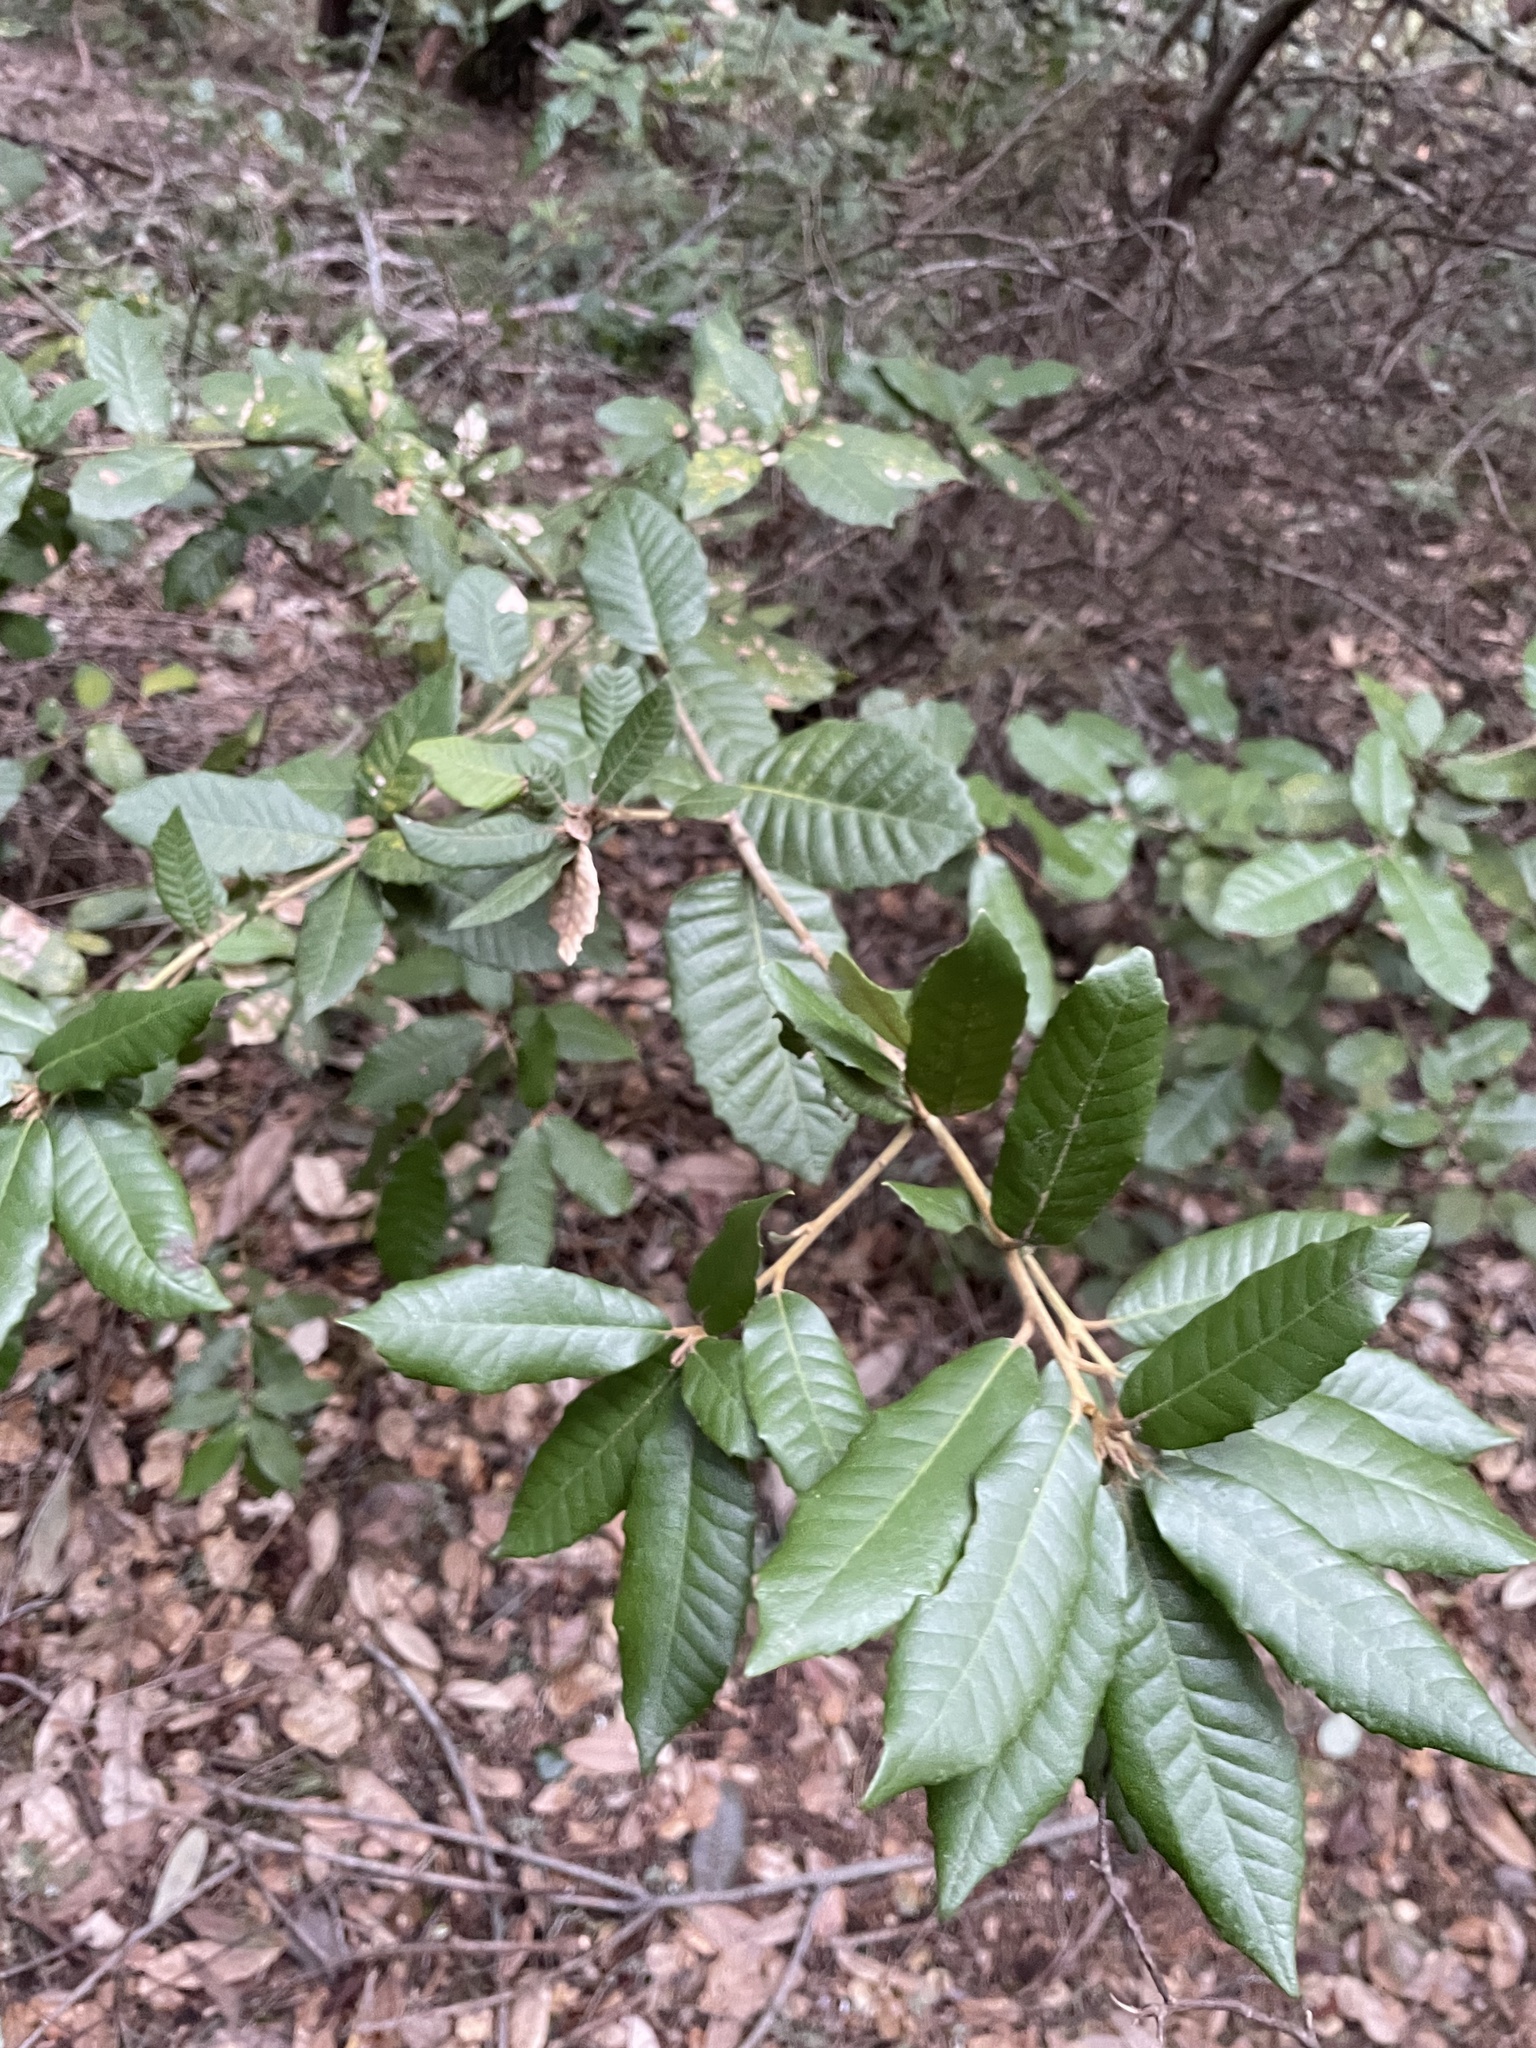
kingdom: Plantae
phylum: Tracheophyta
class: Magnoliopsida
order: Fagales
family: Fagaceae
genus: Notholithocarpus
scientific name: Notholithocarpus densiflorus
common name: Tan bark oak
